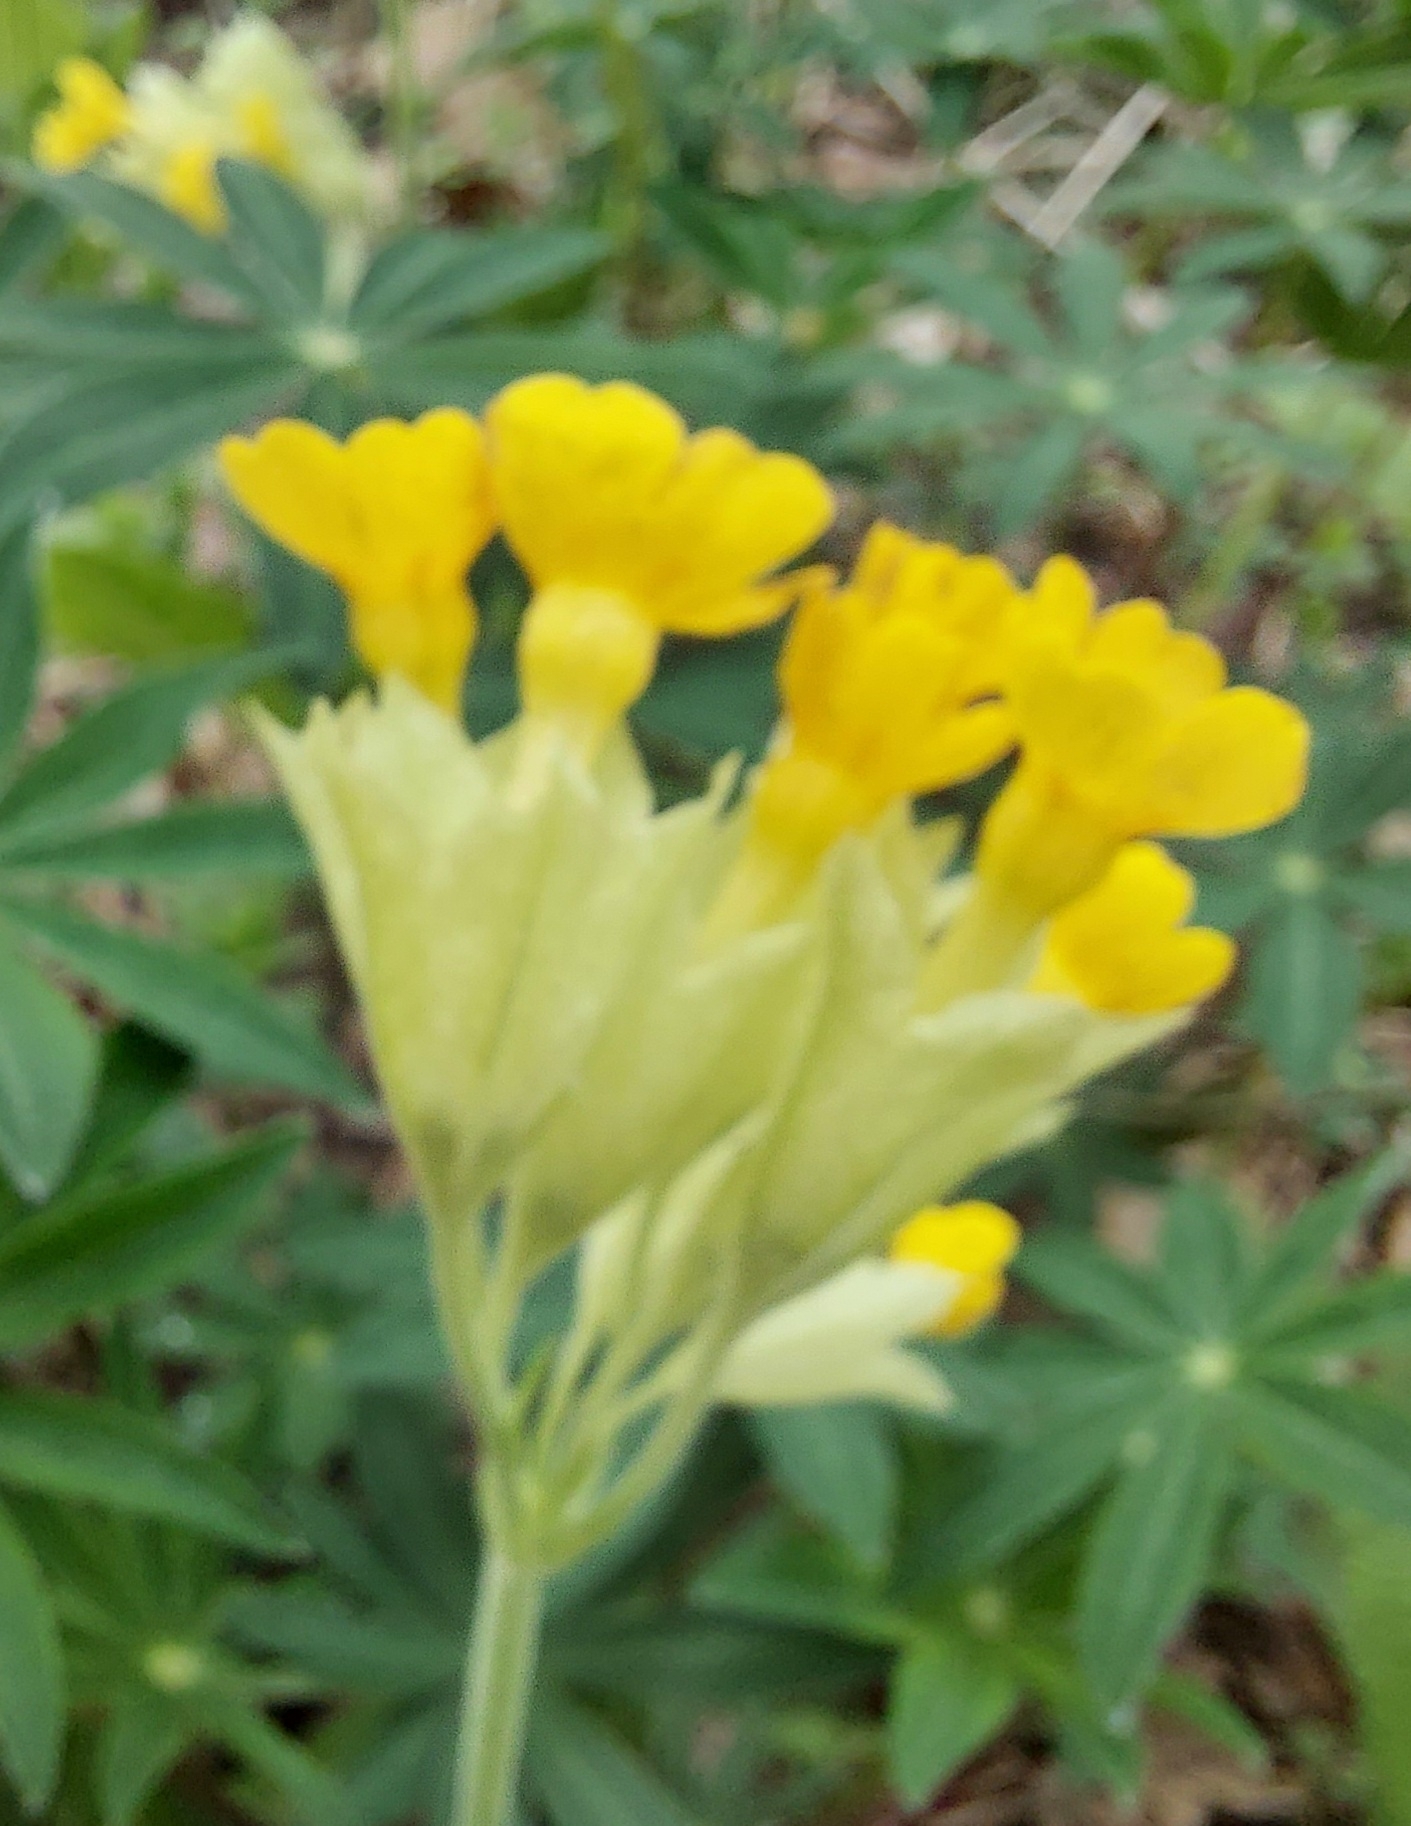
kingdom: Plantae
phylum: Tracheophyta
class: Magnoliopsida
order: Ericales
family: Primulaceae
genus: Primula
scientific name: Primula veris
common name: Cowslip
